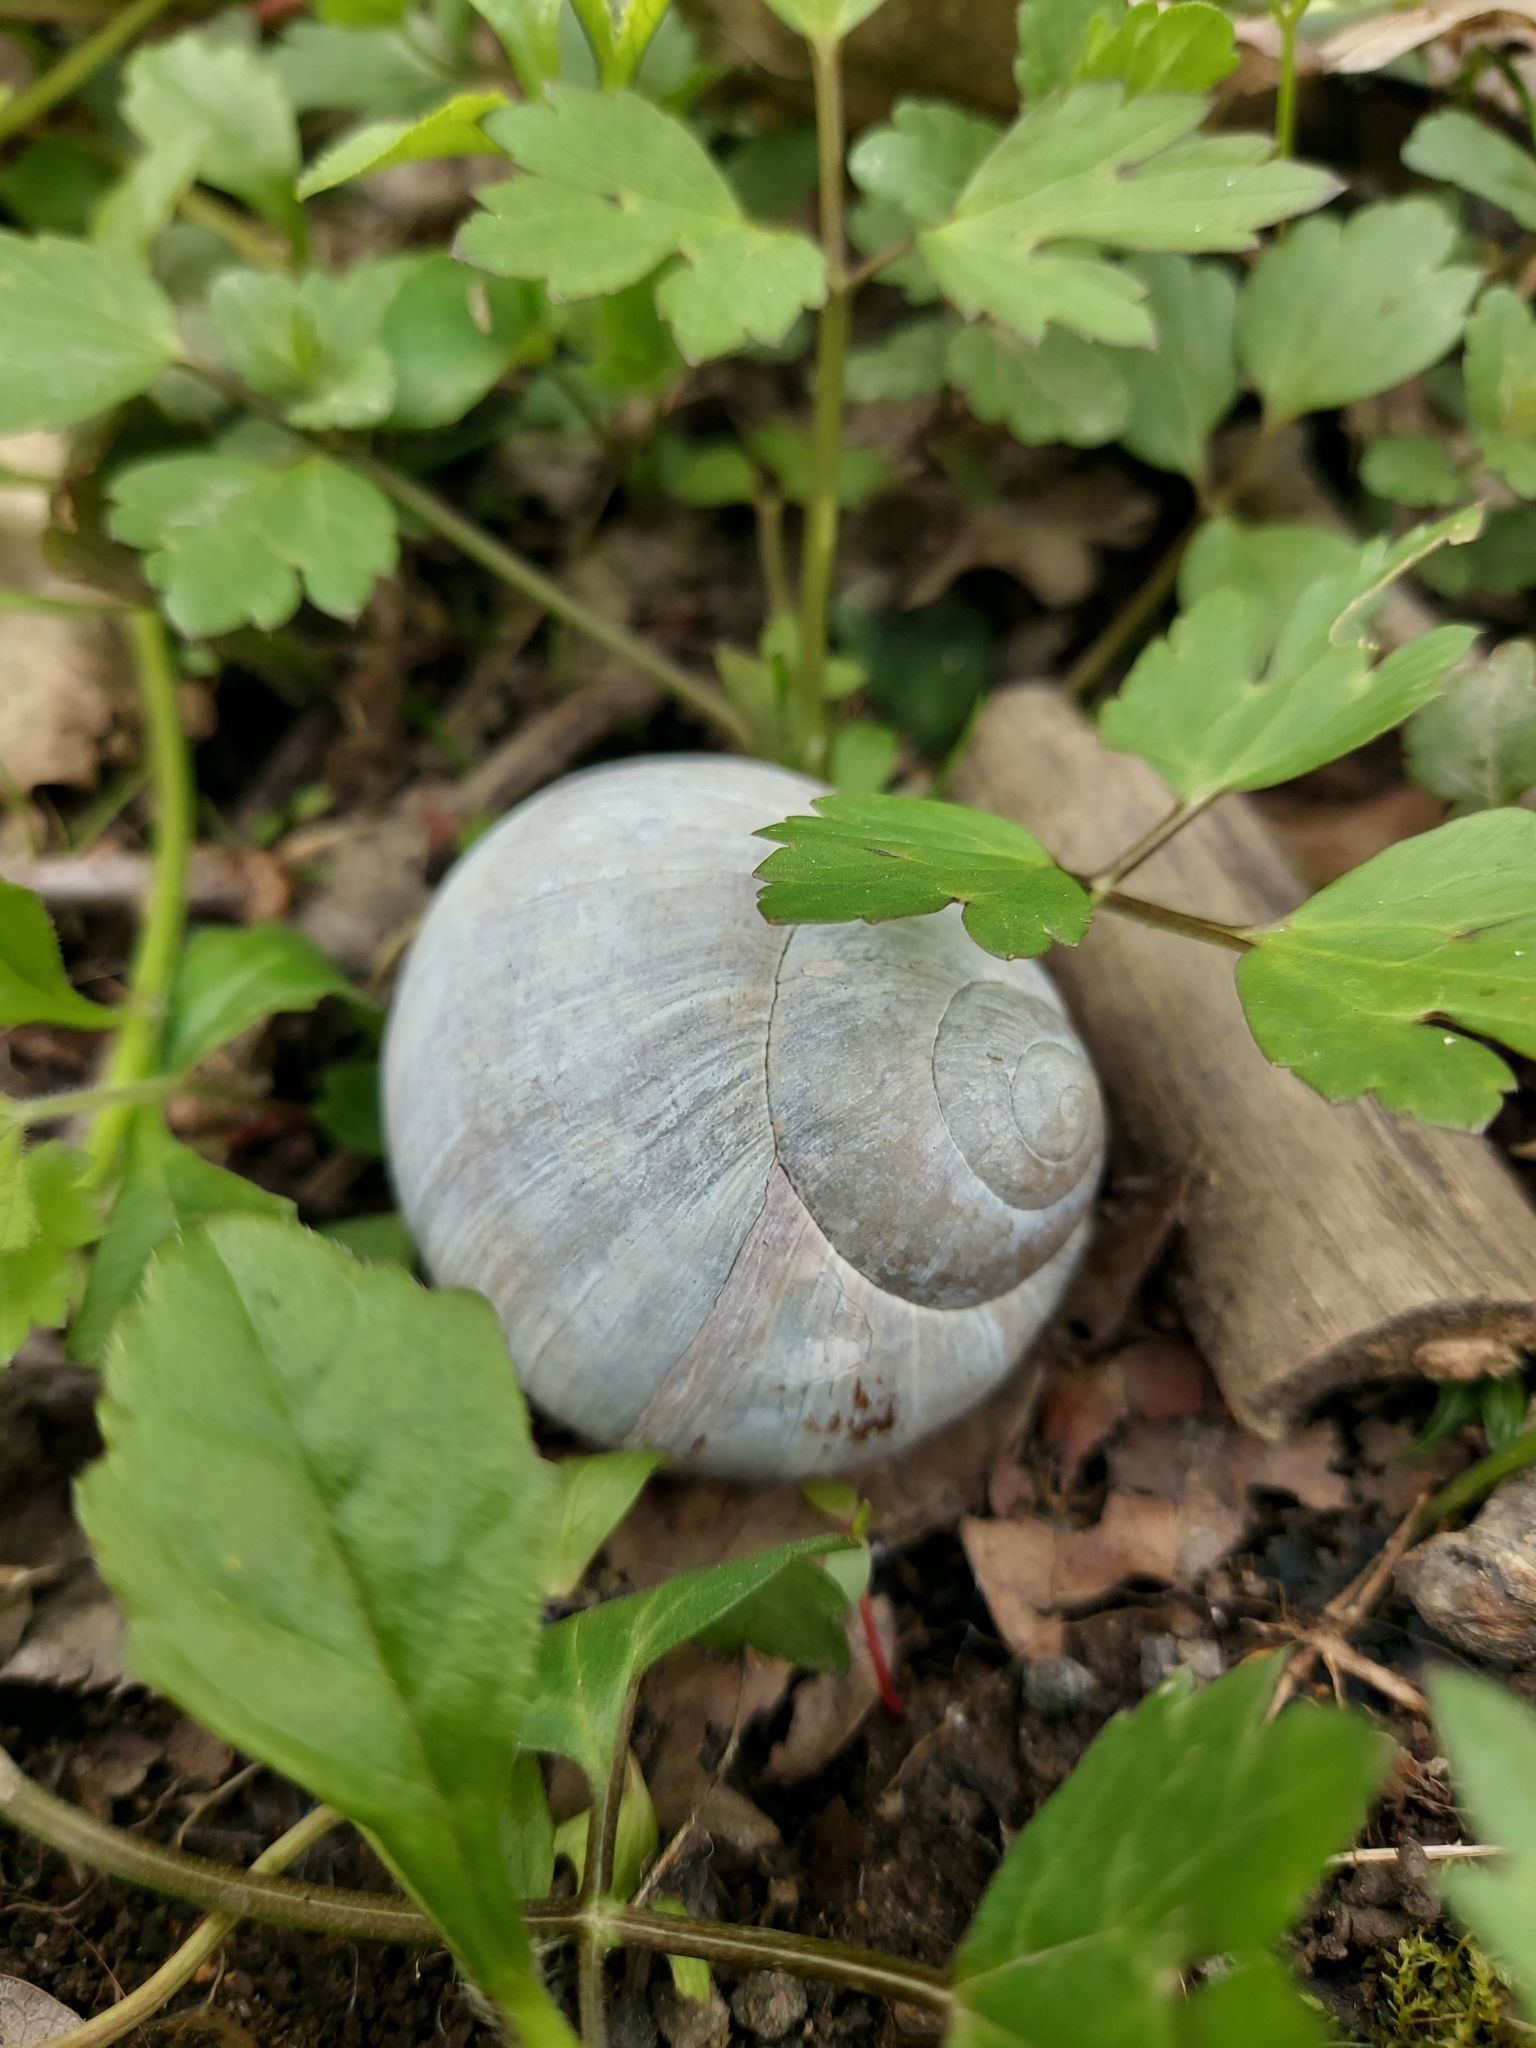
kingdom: Animalia
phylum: Mollusca
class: Gastropoda
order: Stylommatophora
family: Helicidae
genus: Helix
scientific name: Helix pomatia
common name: Roman snail
